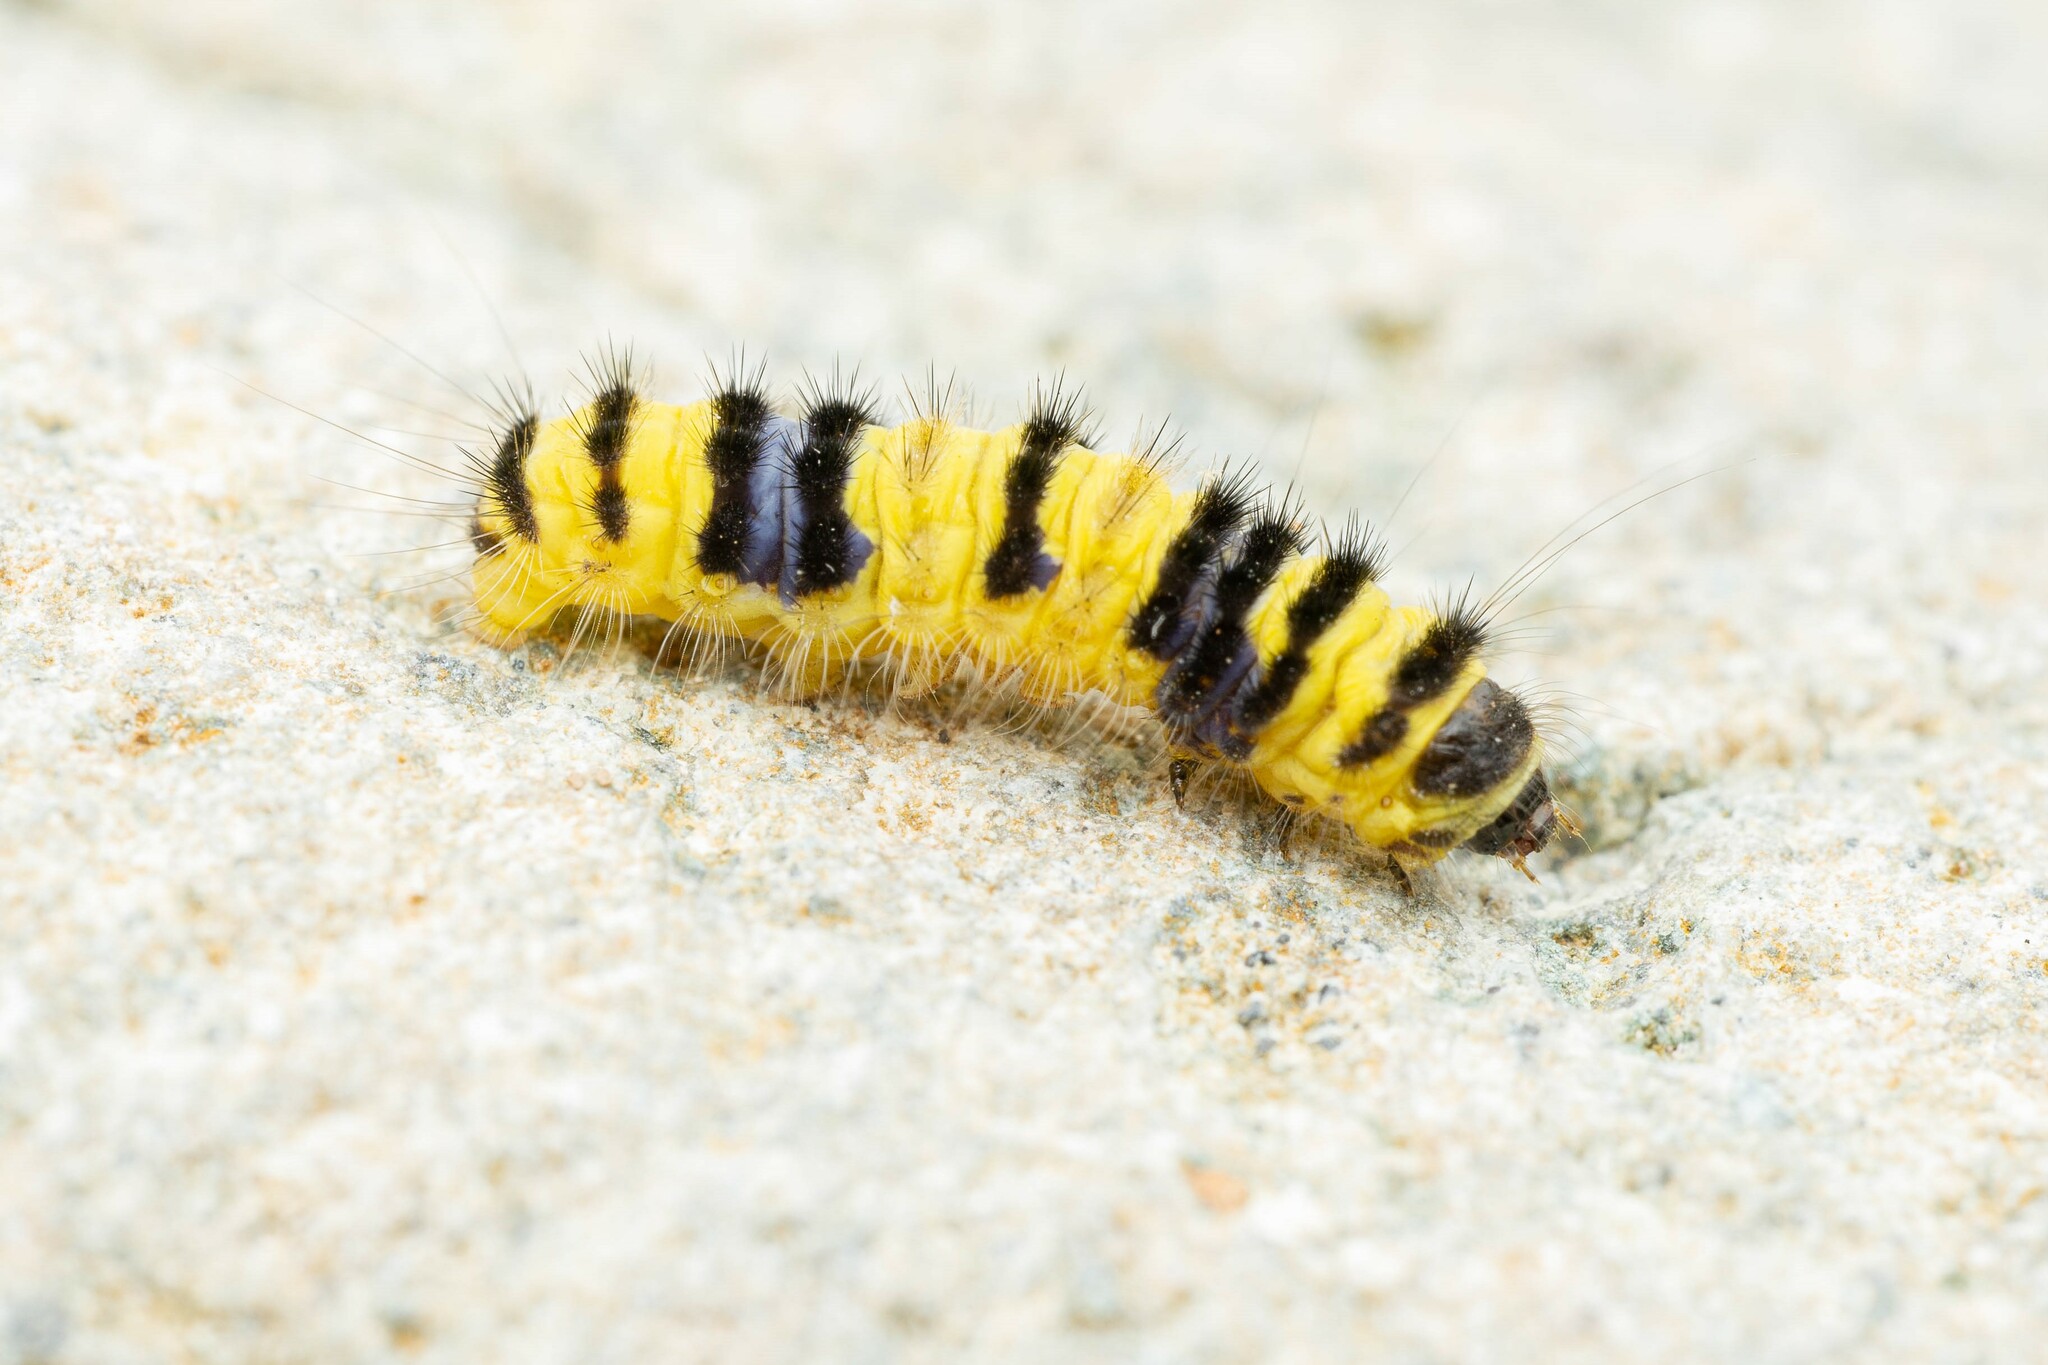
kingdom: Animalia
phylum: Arthropoda
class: Insecta
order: Lepidoptera
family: Zygaenidae
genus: Harrisina
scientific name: Harrisina metallica
